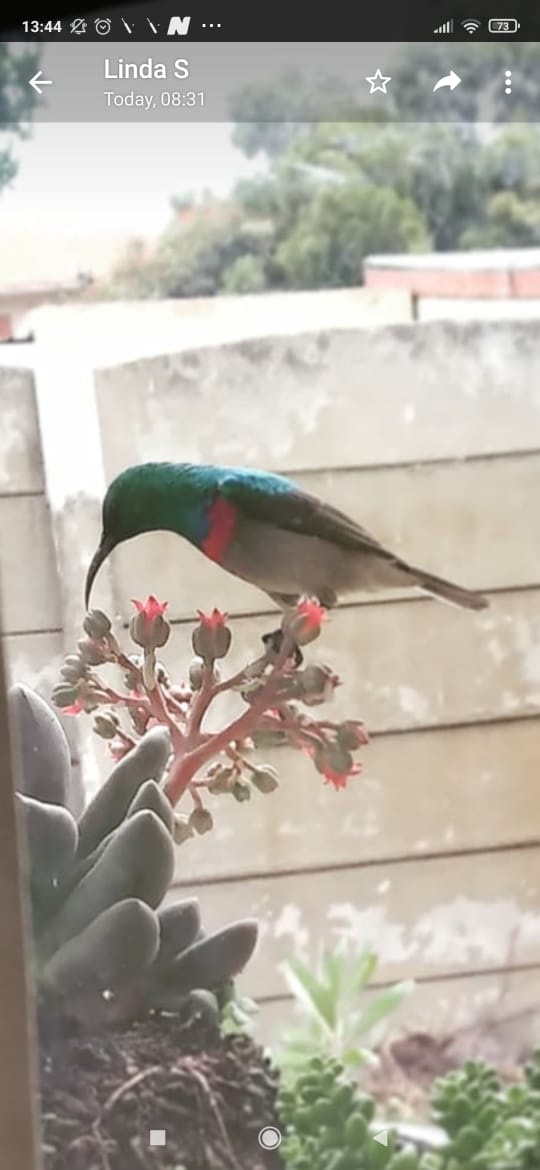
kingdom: Animalia
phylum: Chordata
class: Aves
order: Passeriformes
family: Nectariniidae
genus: Cinnyris
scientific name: Cinnyris chalybeus
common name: Southern double-collared sunbird
